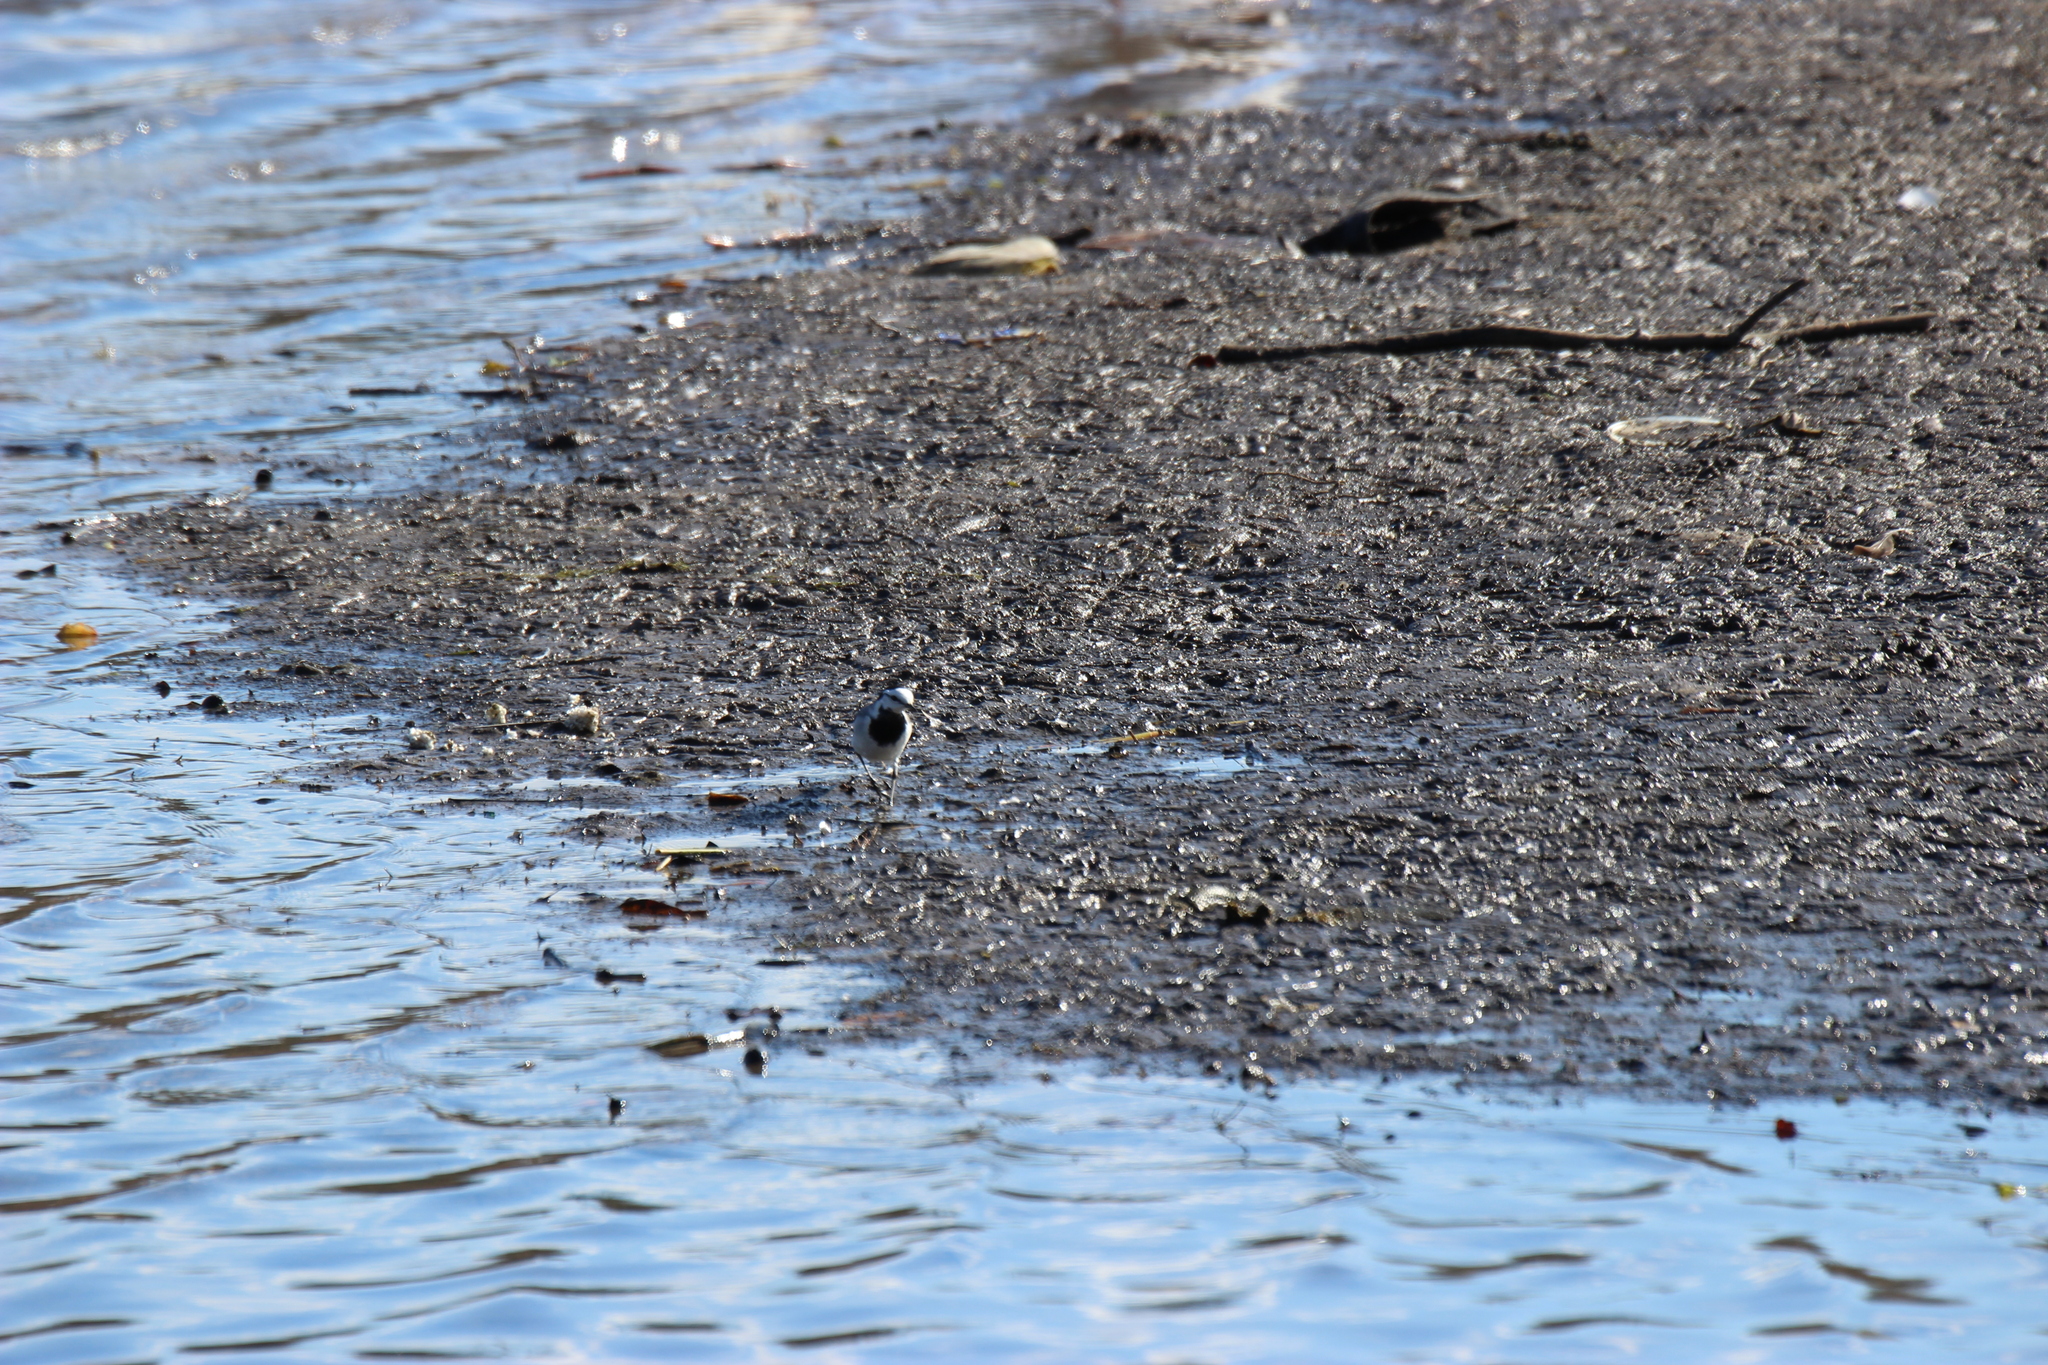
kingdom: Animalia
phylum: Chordata
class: Aves
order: Passeriformes
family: Motacillidae
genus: Motacilla
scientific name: Motacilla alba
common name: White wagtail
